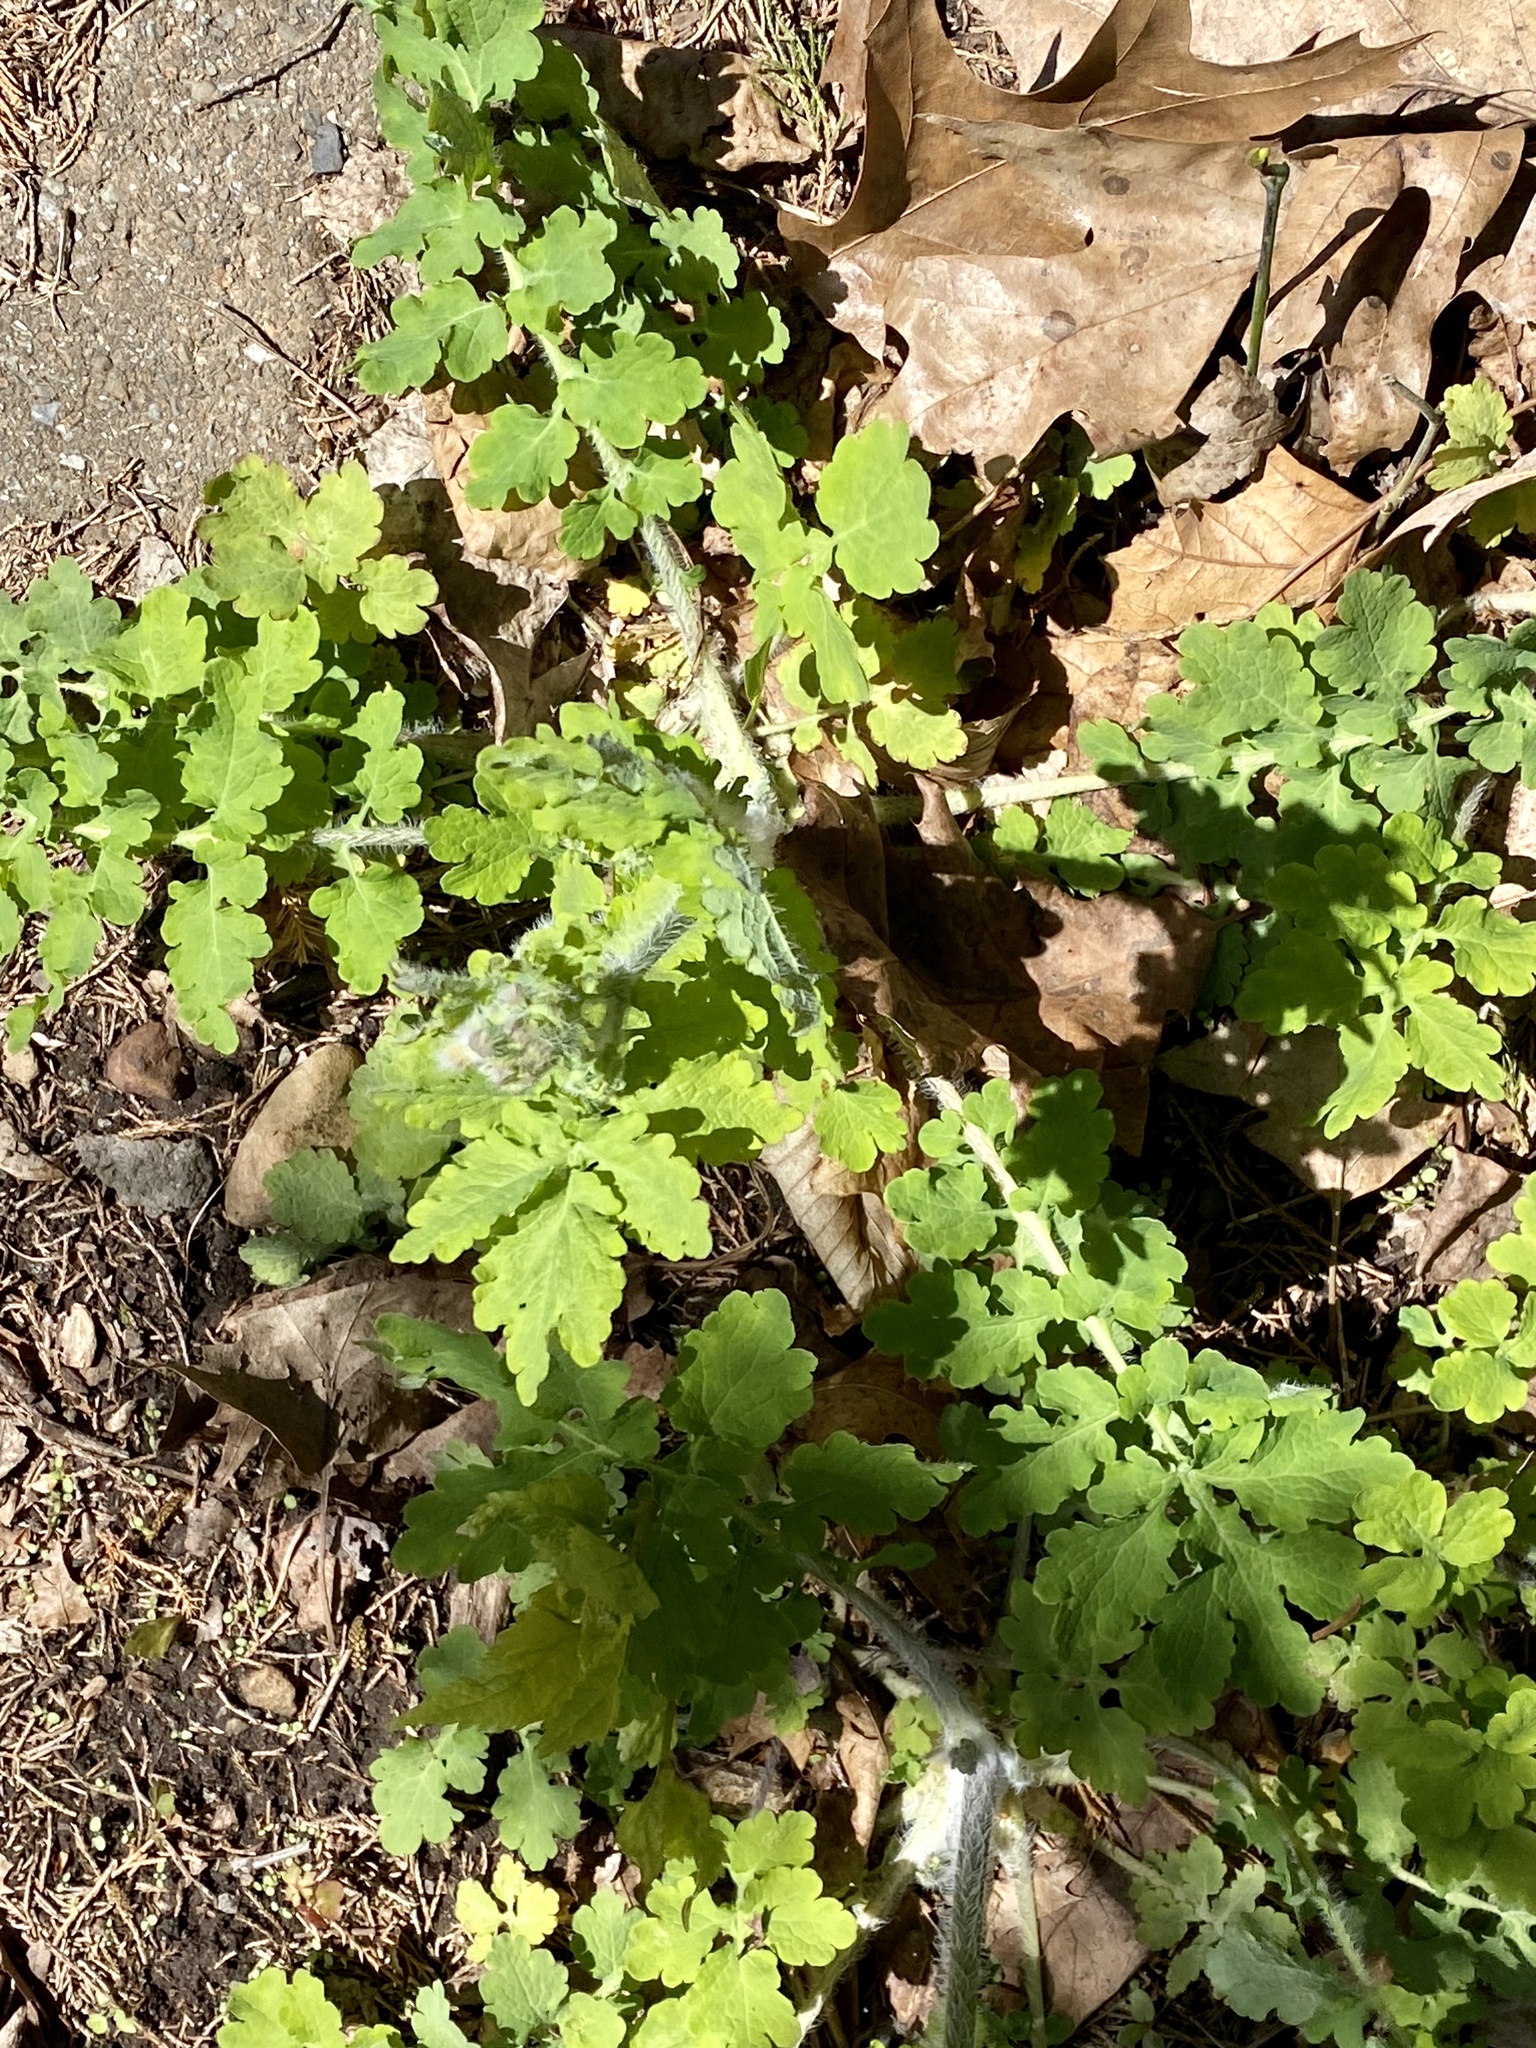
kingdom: Plantae
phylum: Tracheophyta
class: Magnoliopsida
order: Ranunculales
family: Papaveraceae
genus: Chelidonium
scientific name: Chelidonium majus
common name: Greater celandine
